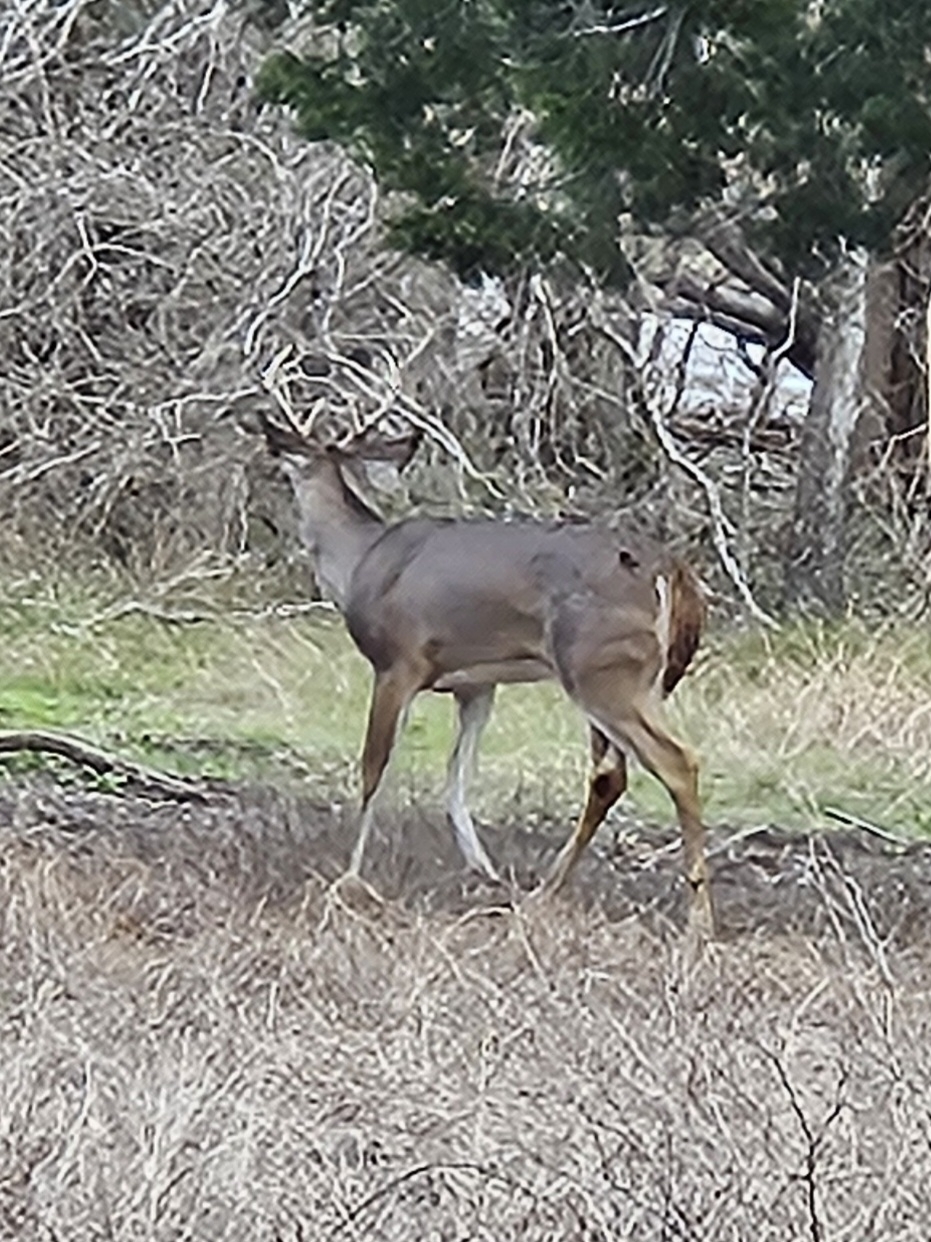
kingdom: Animalia
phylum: Chordata
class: Mammalia
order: Artiodactyla
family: Cervidae
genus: Odocoileus
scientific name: Odocoileus virginianus
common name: White-tailed deer
